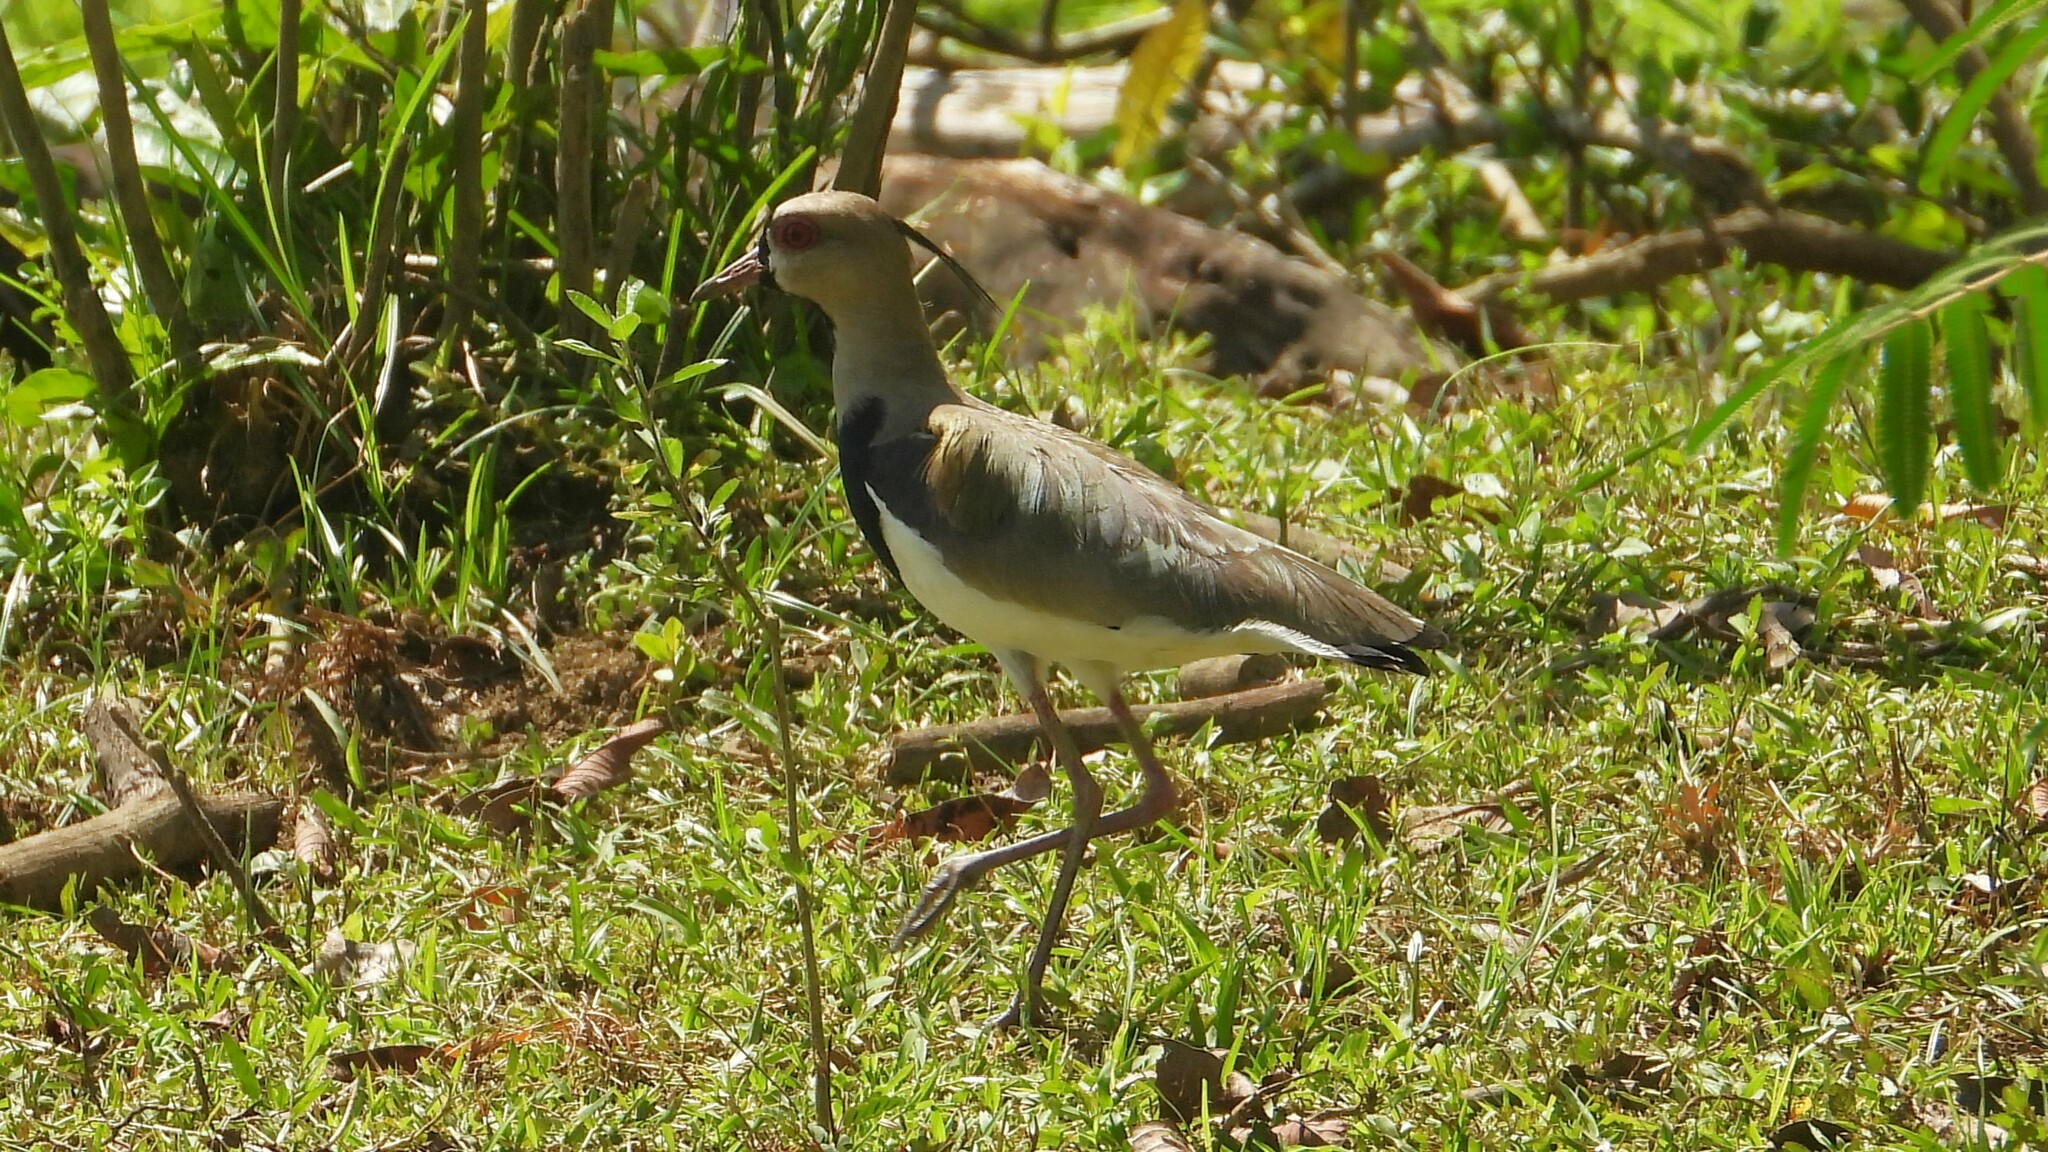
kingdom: Animalia
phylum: Chordata
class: Aves
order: Charadriiformes
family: Charadriidae
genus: Vanellus
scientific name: Vanellus chilensis
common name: Southern lapwing
